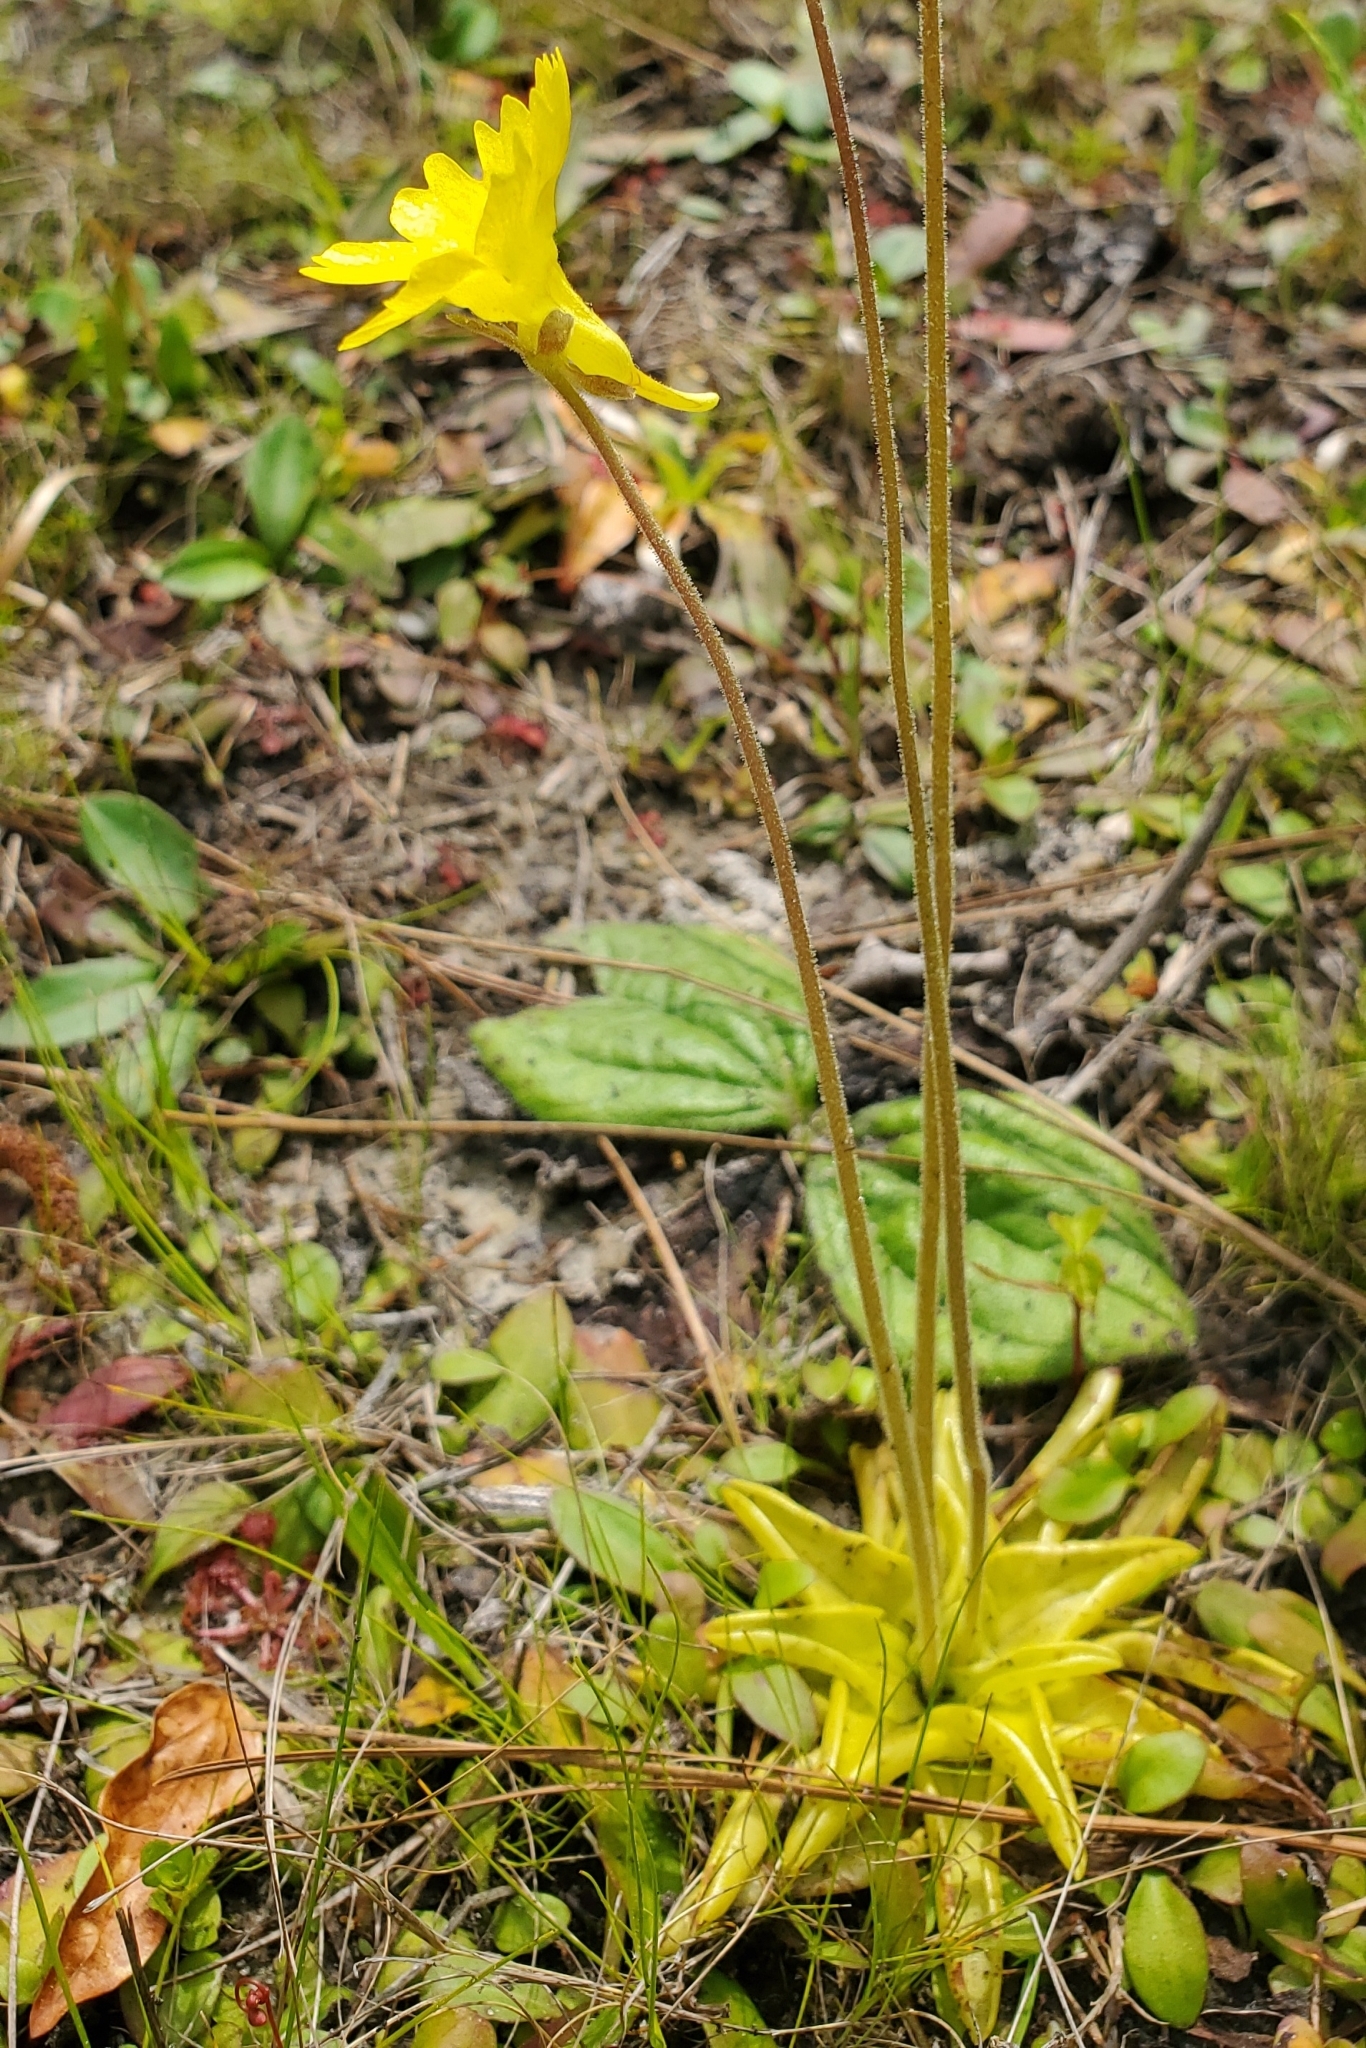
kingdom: Plantae
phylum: Tracheophyta
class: Magnoliopsida
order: Lamiales
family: Lentibulariaceae
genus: Pinguicula
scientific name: Pinguicula lutea
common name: Yellow butterwort
